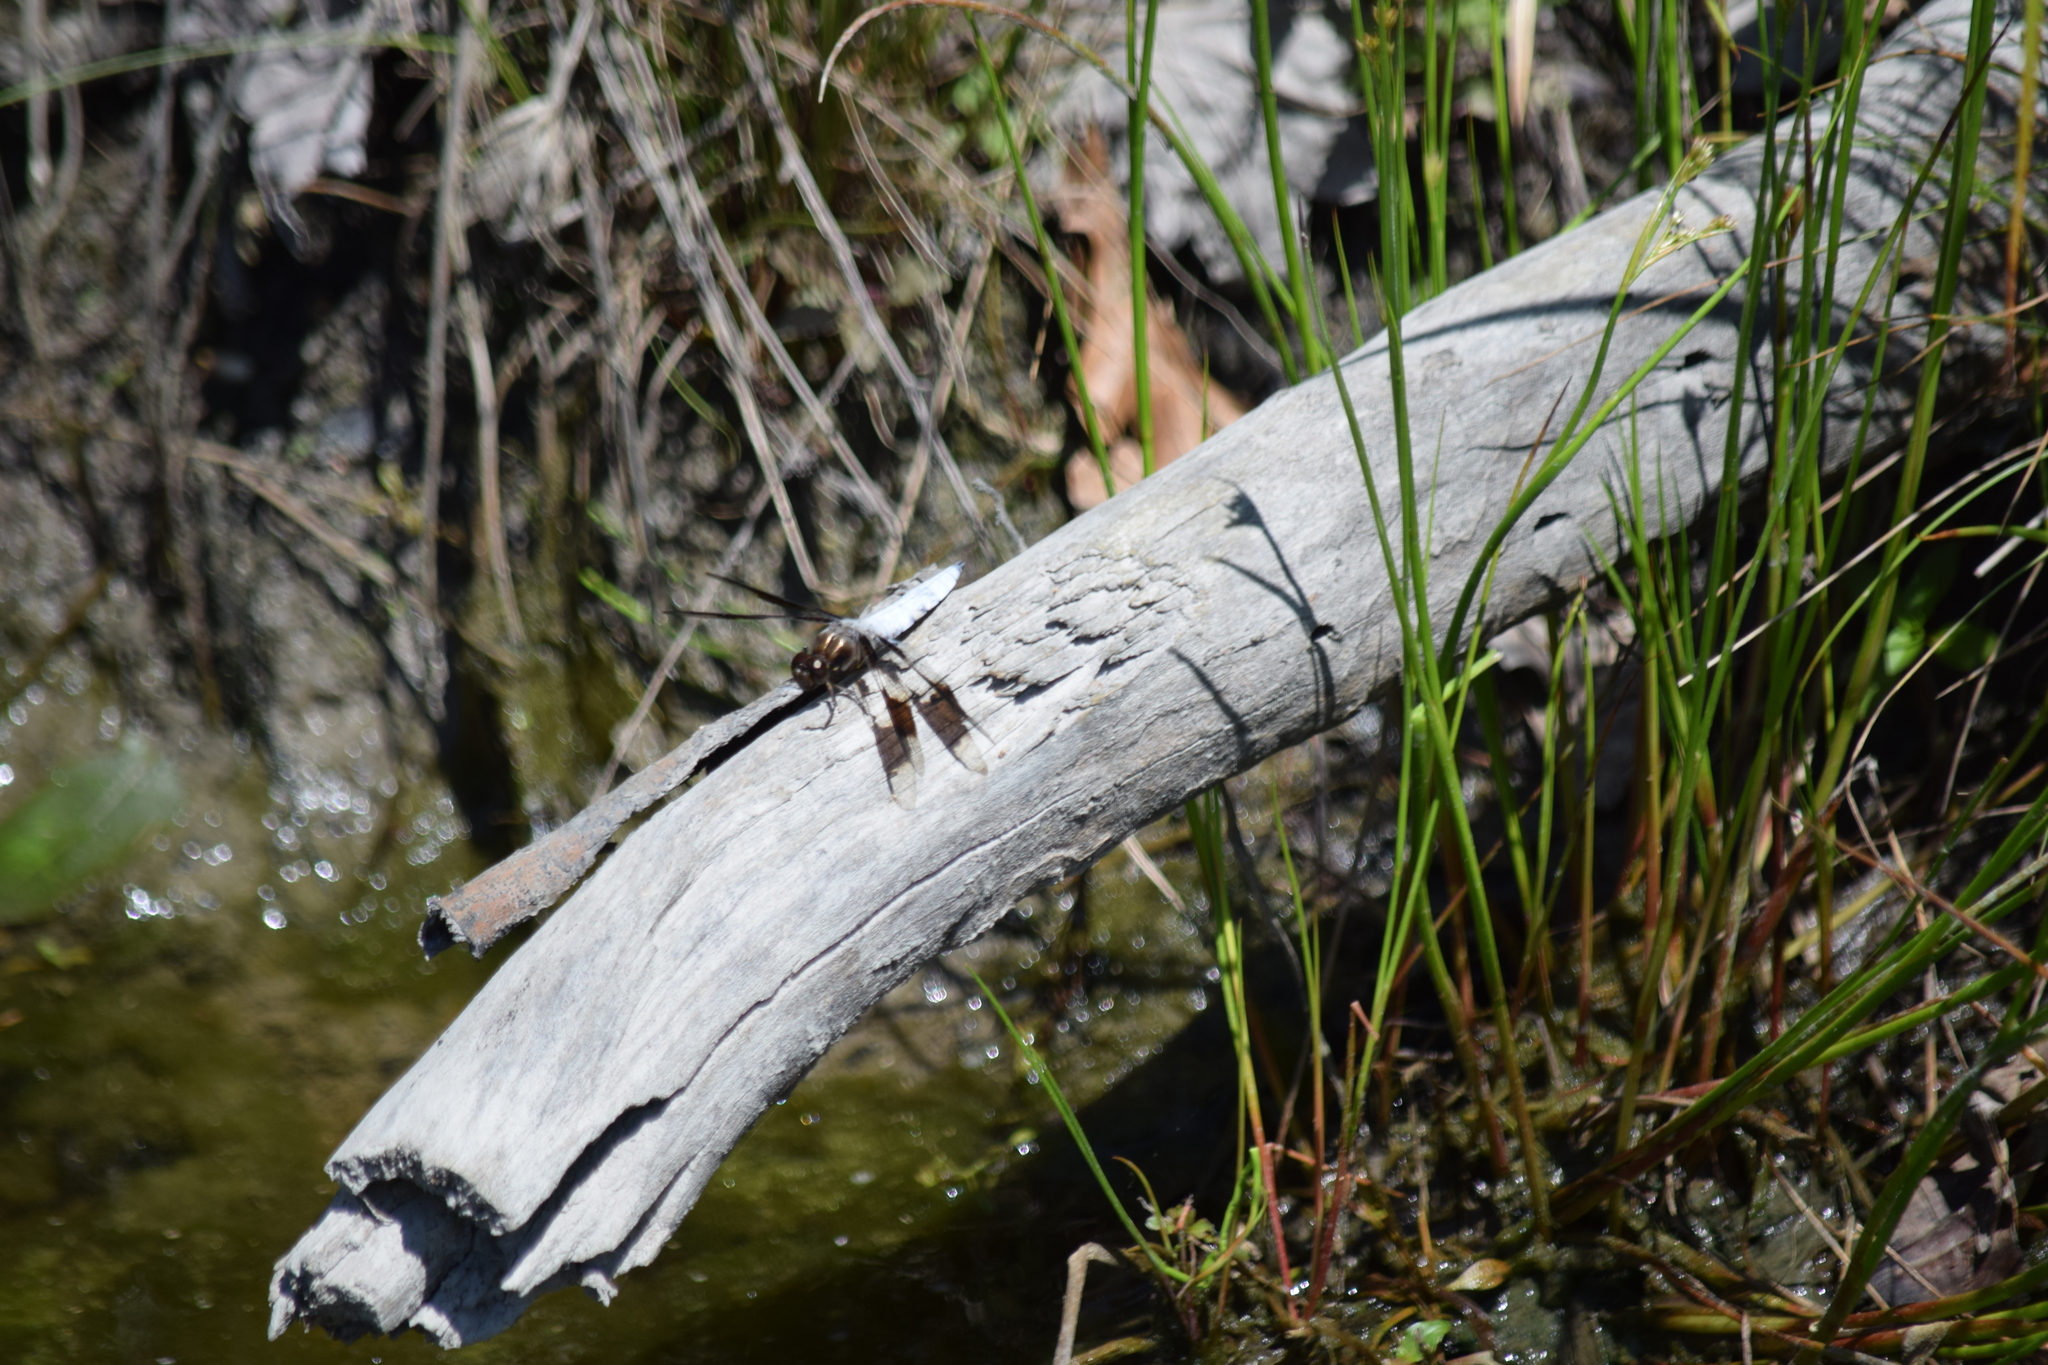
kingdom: Animalia
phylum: Arthropoda
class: Insecta
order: Odonata
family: Libellulidae
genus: Plathemis
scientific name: Plathemis lydia
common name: Common whitetail
